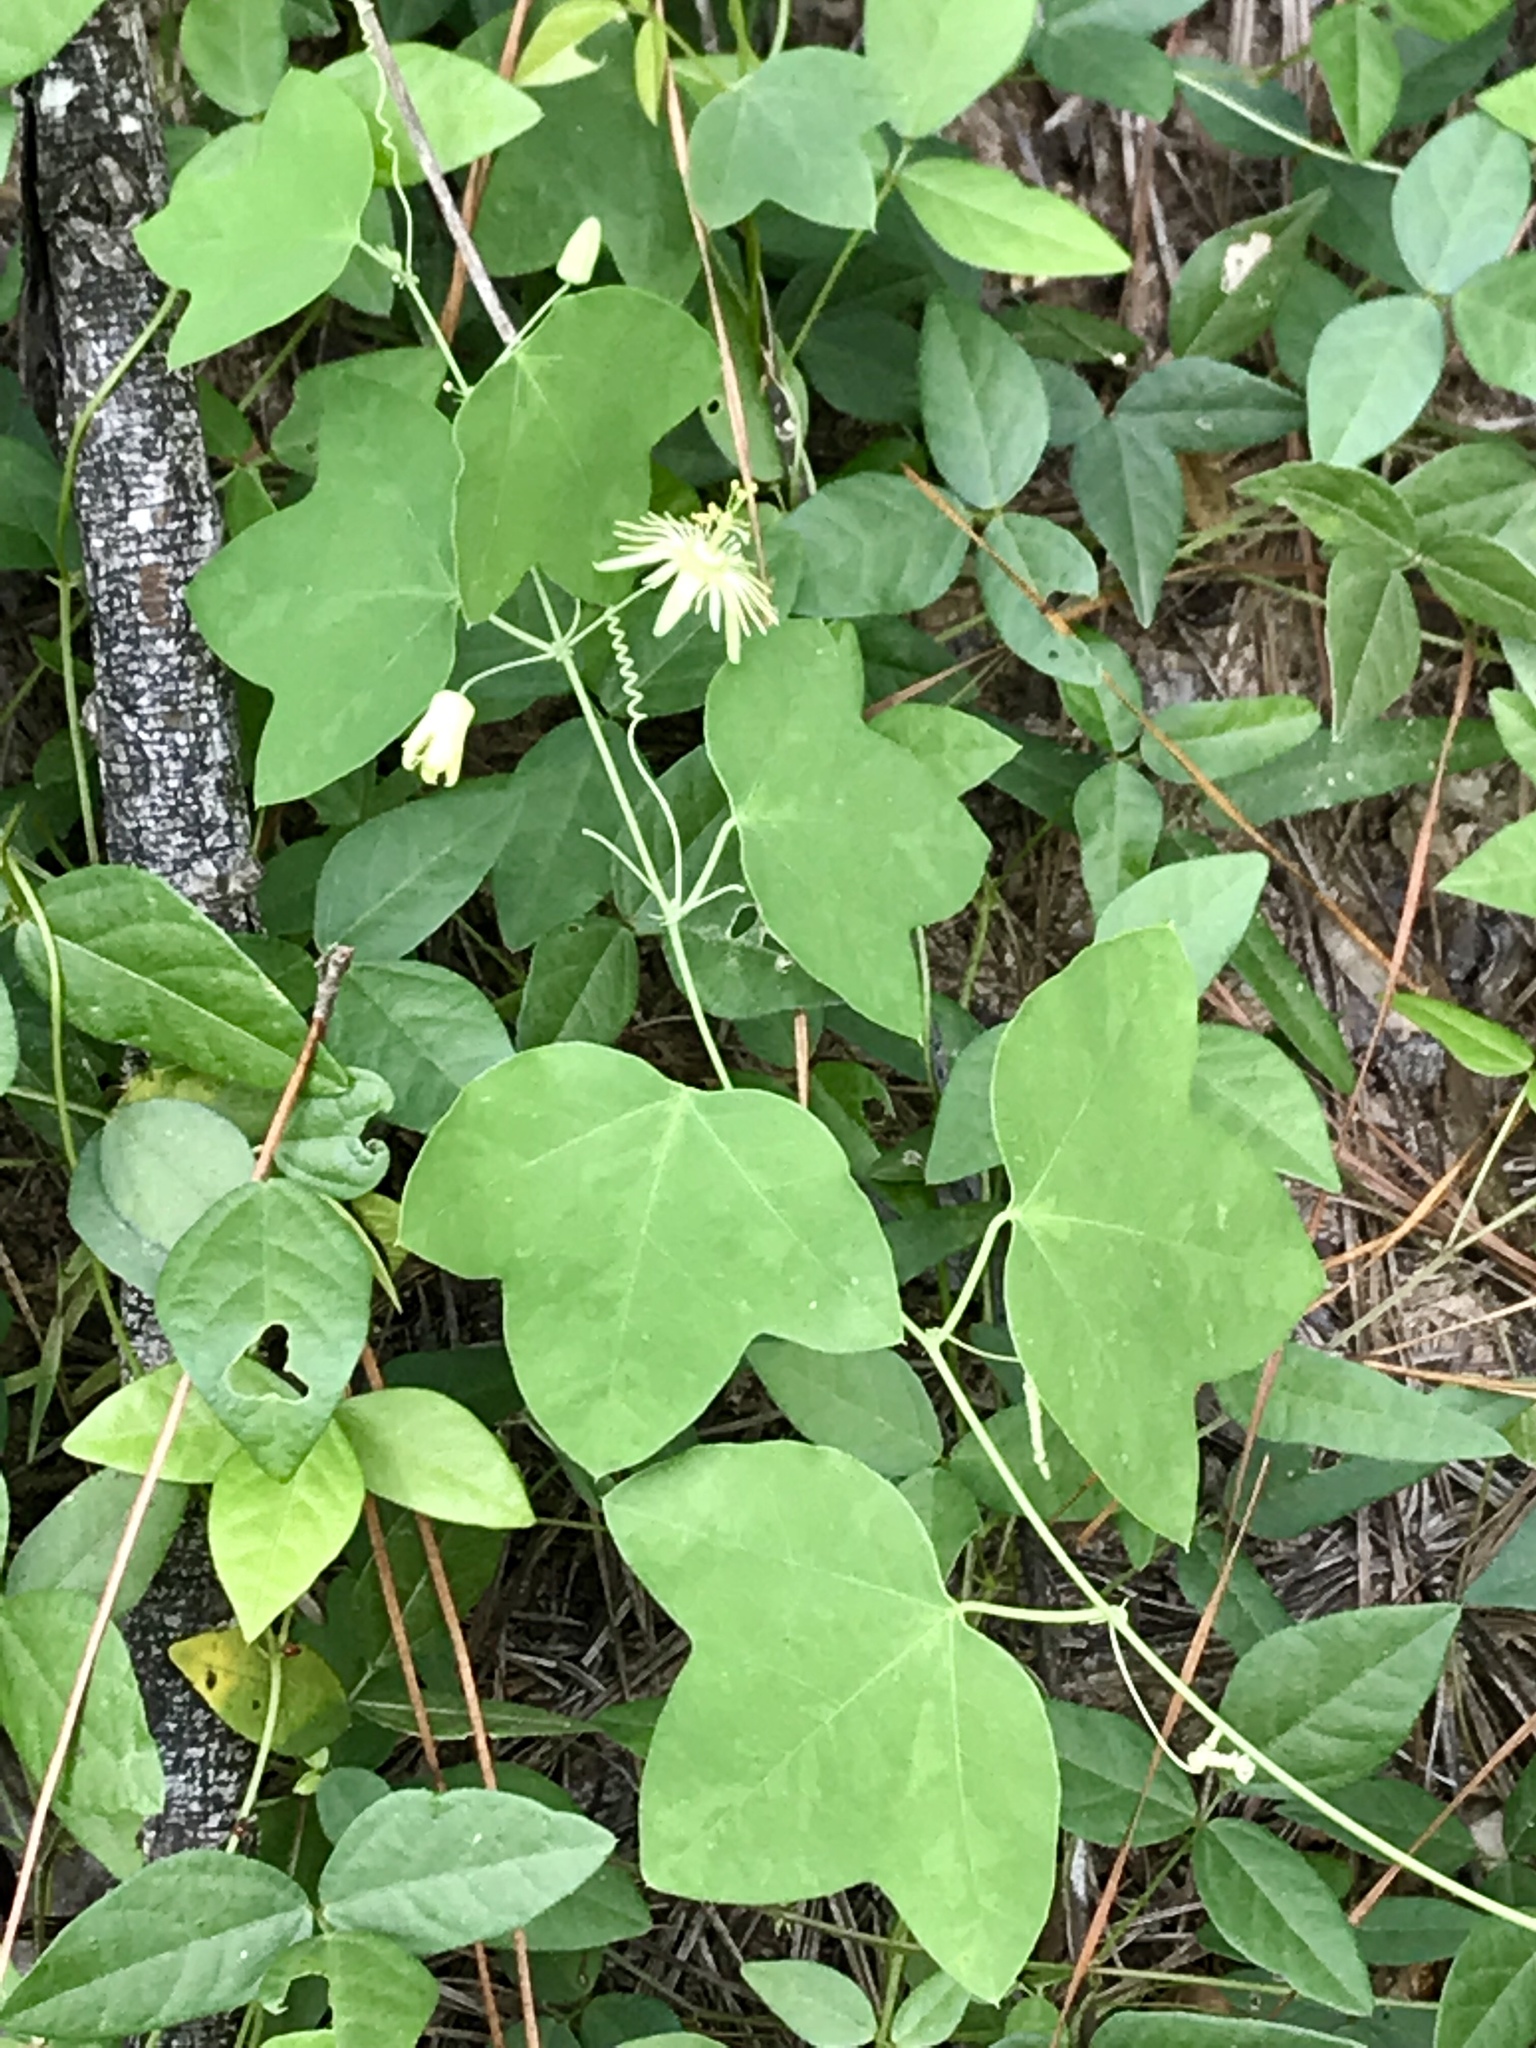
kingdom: Plantae
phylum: Tracheophyta
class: Magnoliopsida
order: Malpighiales
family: Passifloraceae
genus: Passiflora
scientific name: Passiflora lutea
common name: Yellow passionflower
